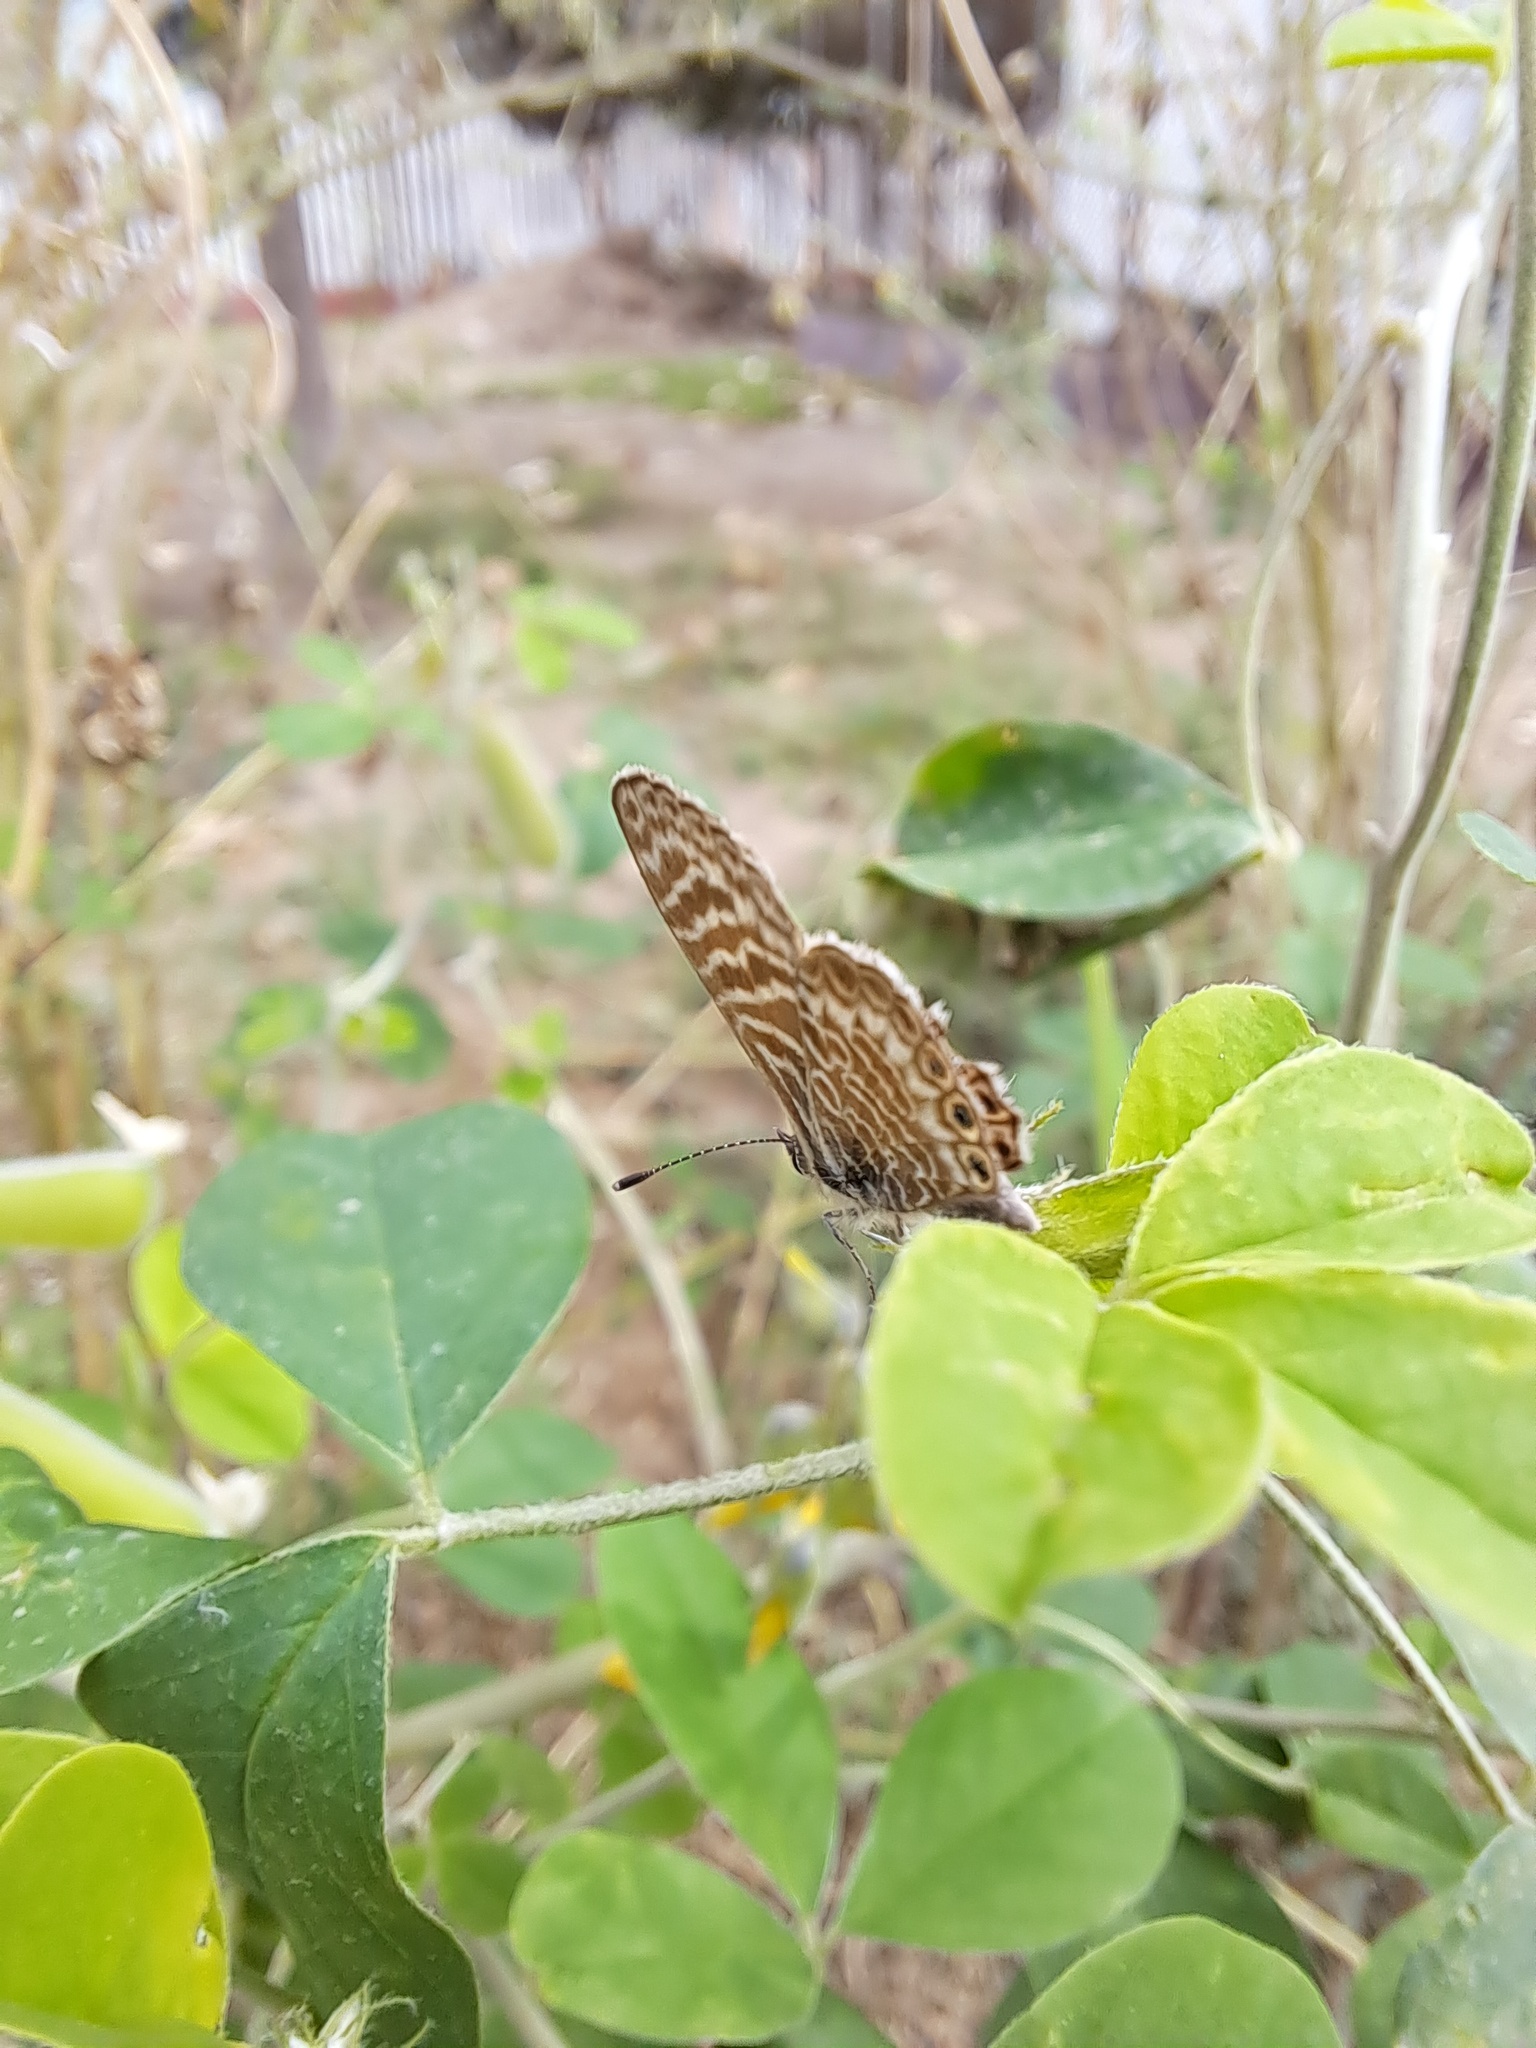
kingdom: Animalia
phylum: Arthropoda
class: Insecta
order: Lepidoptera
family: Lycaenidae
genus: Leptotes
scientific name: Leptotes trigemmatus
